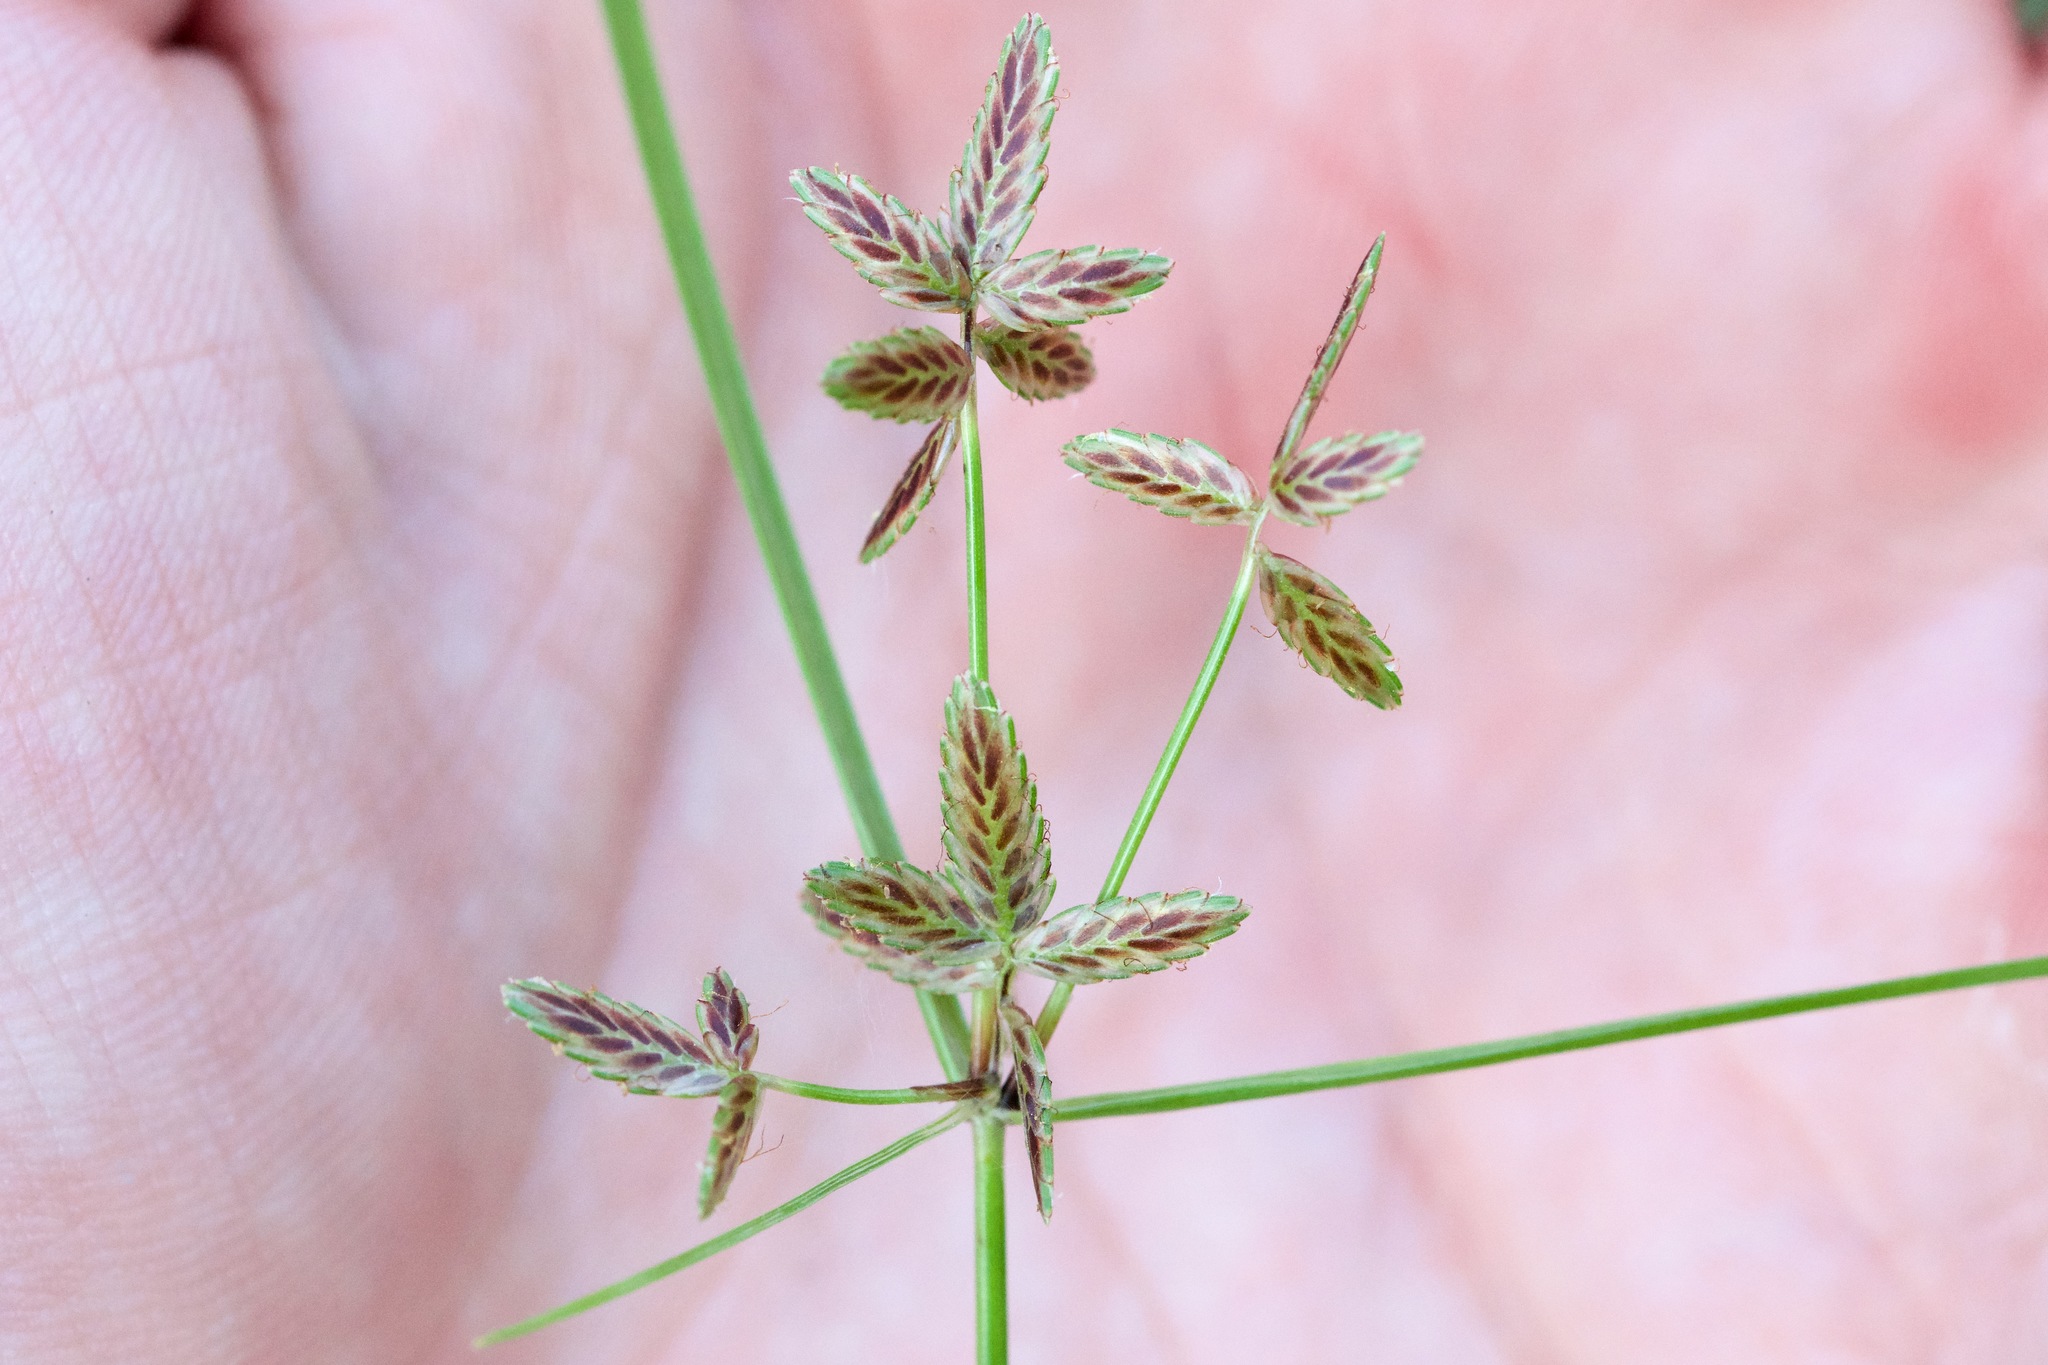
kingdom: Plantae
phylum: Tracheophyta
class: Liliopsida
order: Poales
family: Cyperaceae
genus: Cyperus
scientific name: Cyperus bipartitus
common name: Brook flatsedge
